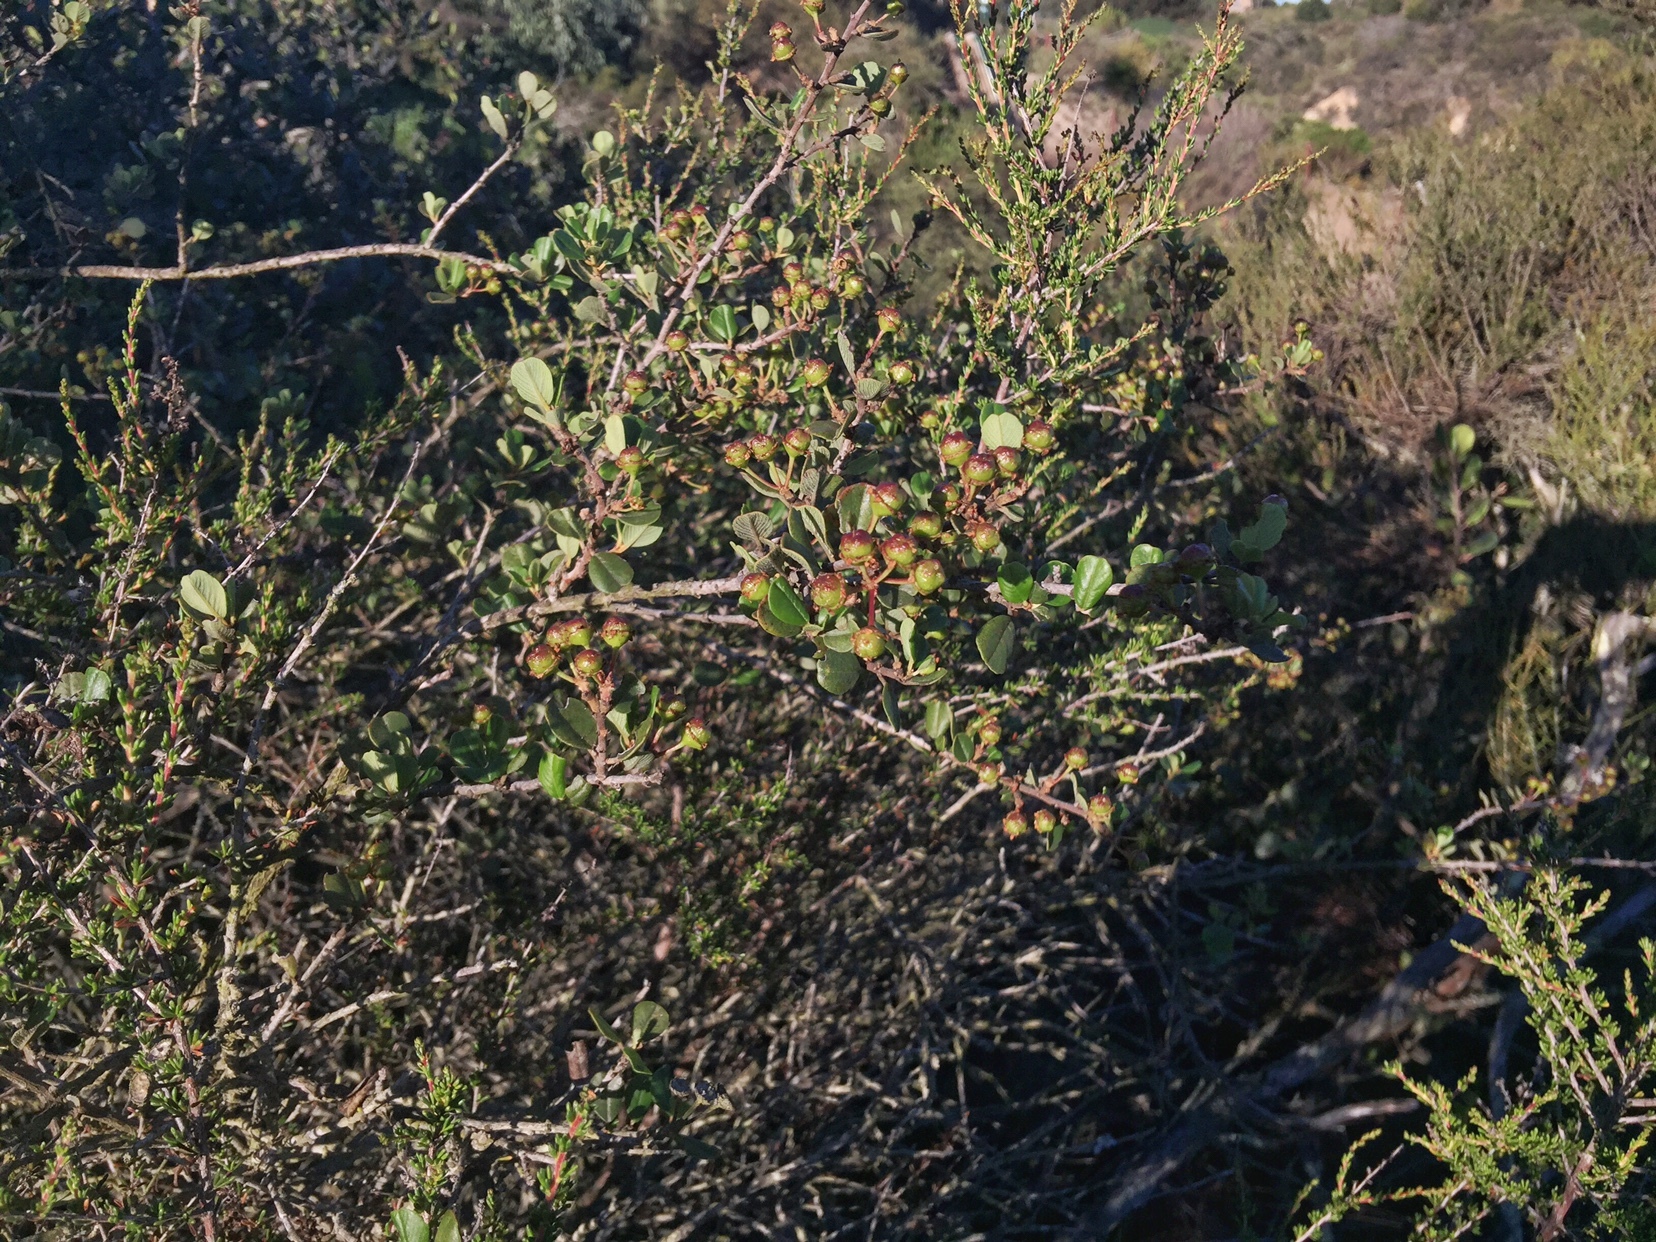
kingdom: Plantae
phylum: Tracheophyta
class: Magnoliopsida
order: Rosales
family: Rhamnaceae
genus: Ceanothus
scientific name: Ceanothus verrucosus
